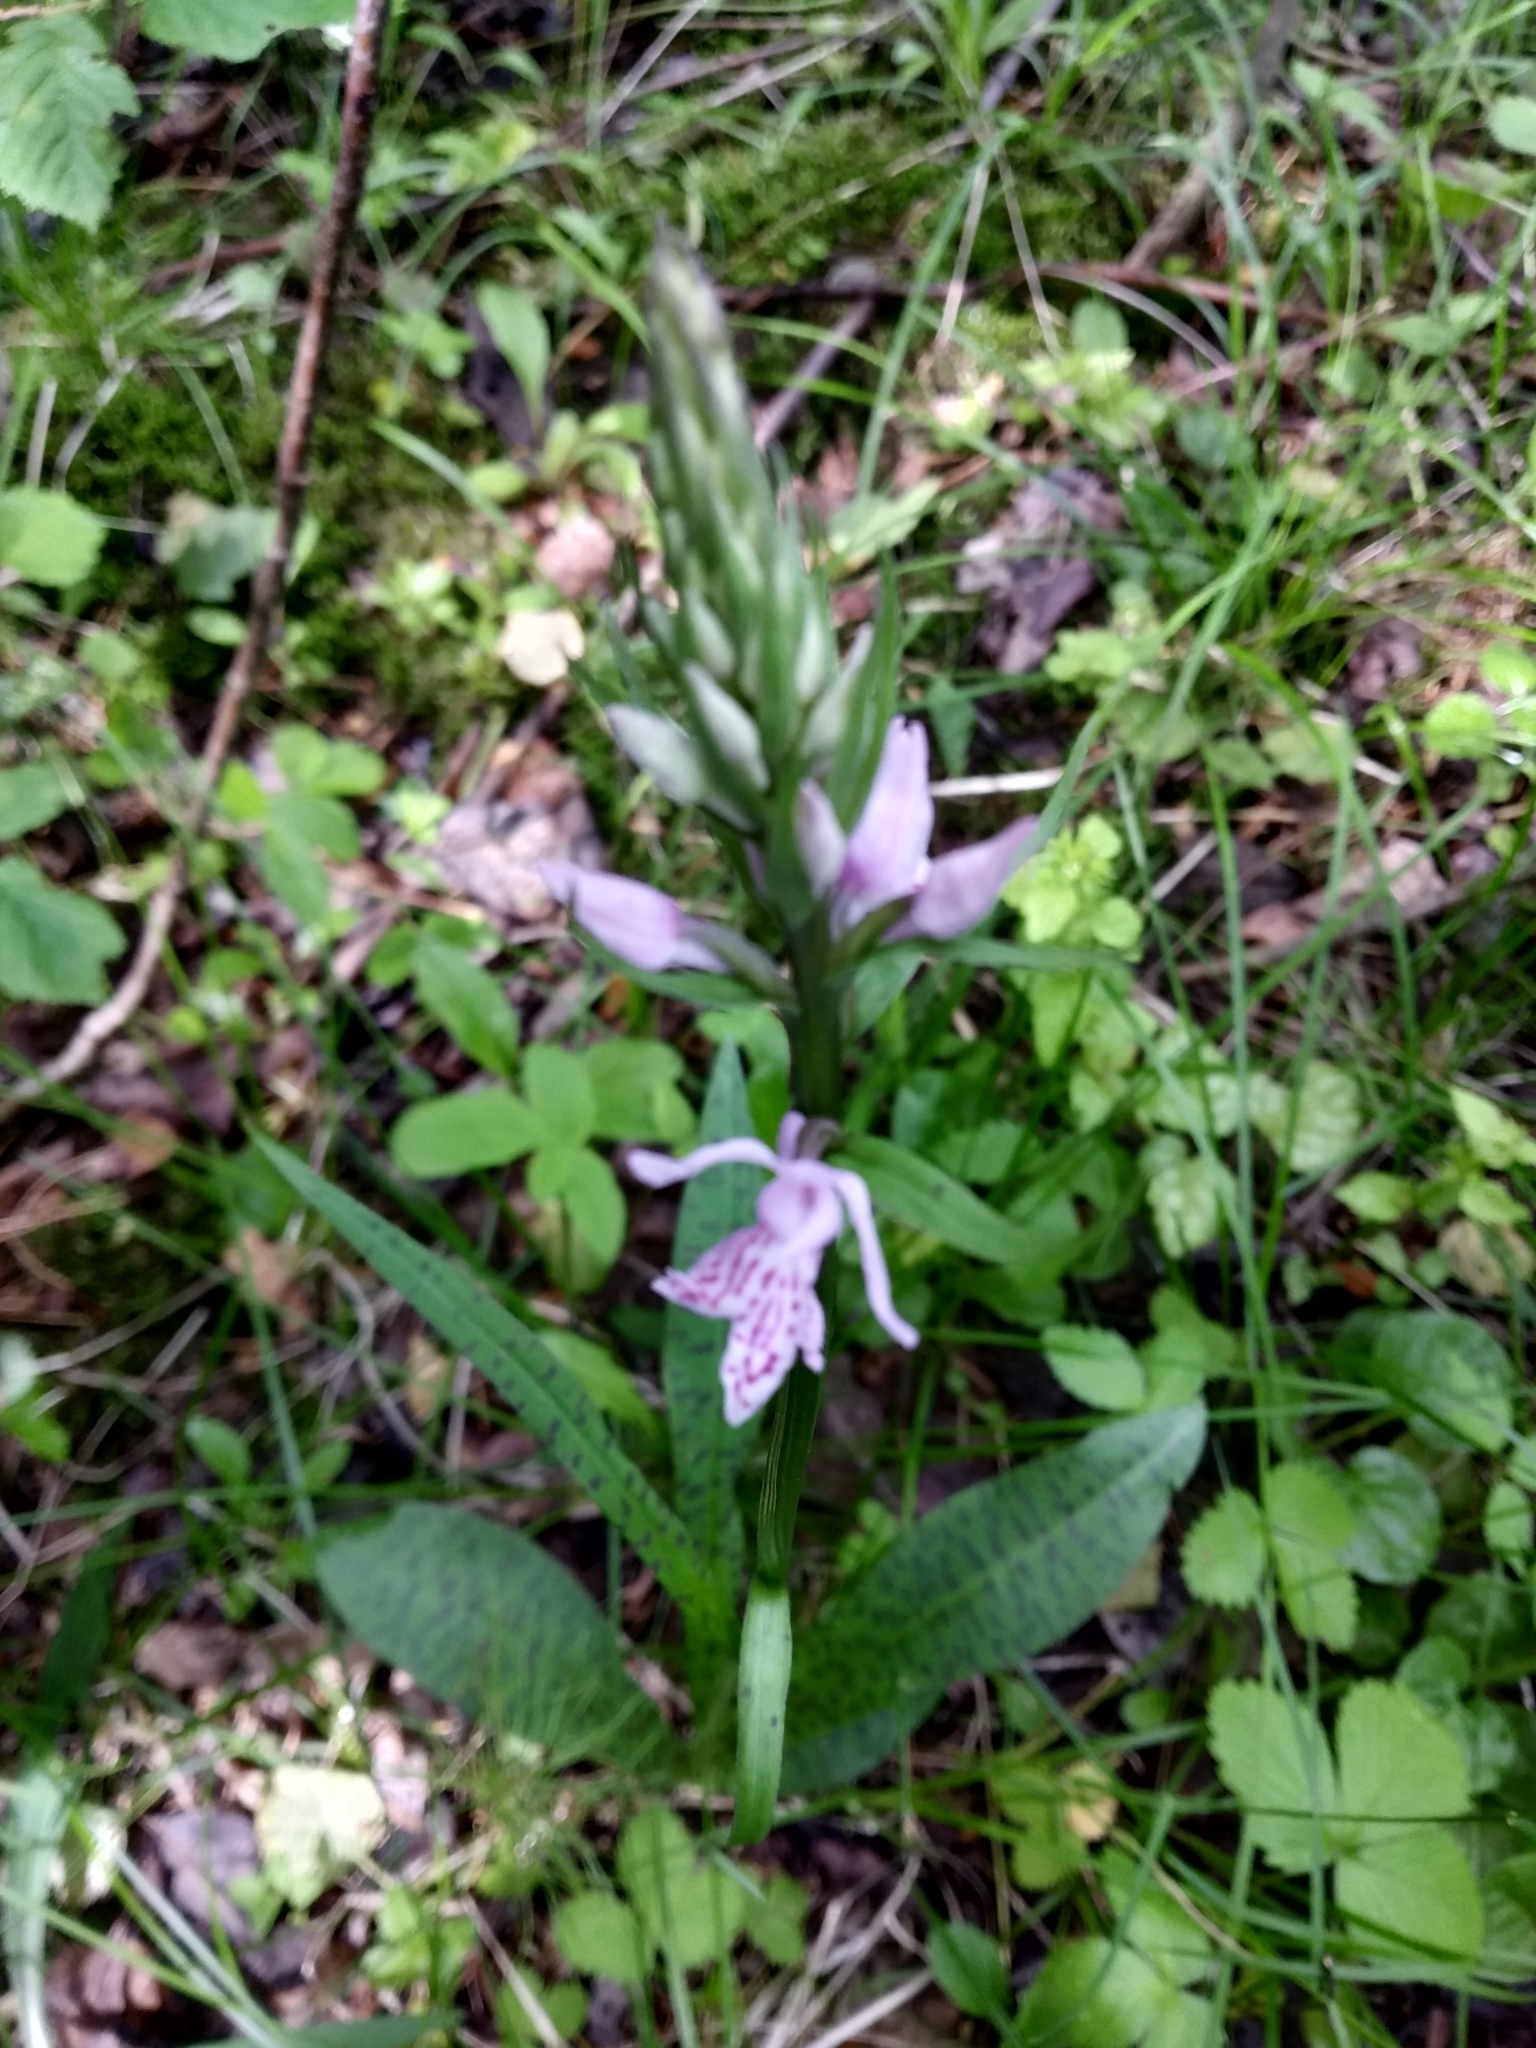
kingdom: Plantae
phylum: Tracheophyta
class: Liliopsida
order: Asparagales
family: Orchidaceae
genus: Dactylorhiza
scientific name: Dactylorhiza maculata
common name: Heath spotted-orchid
